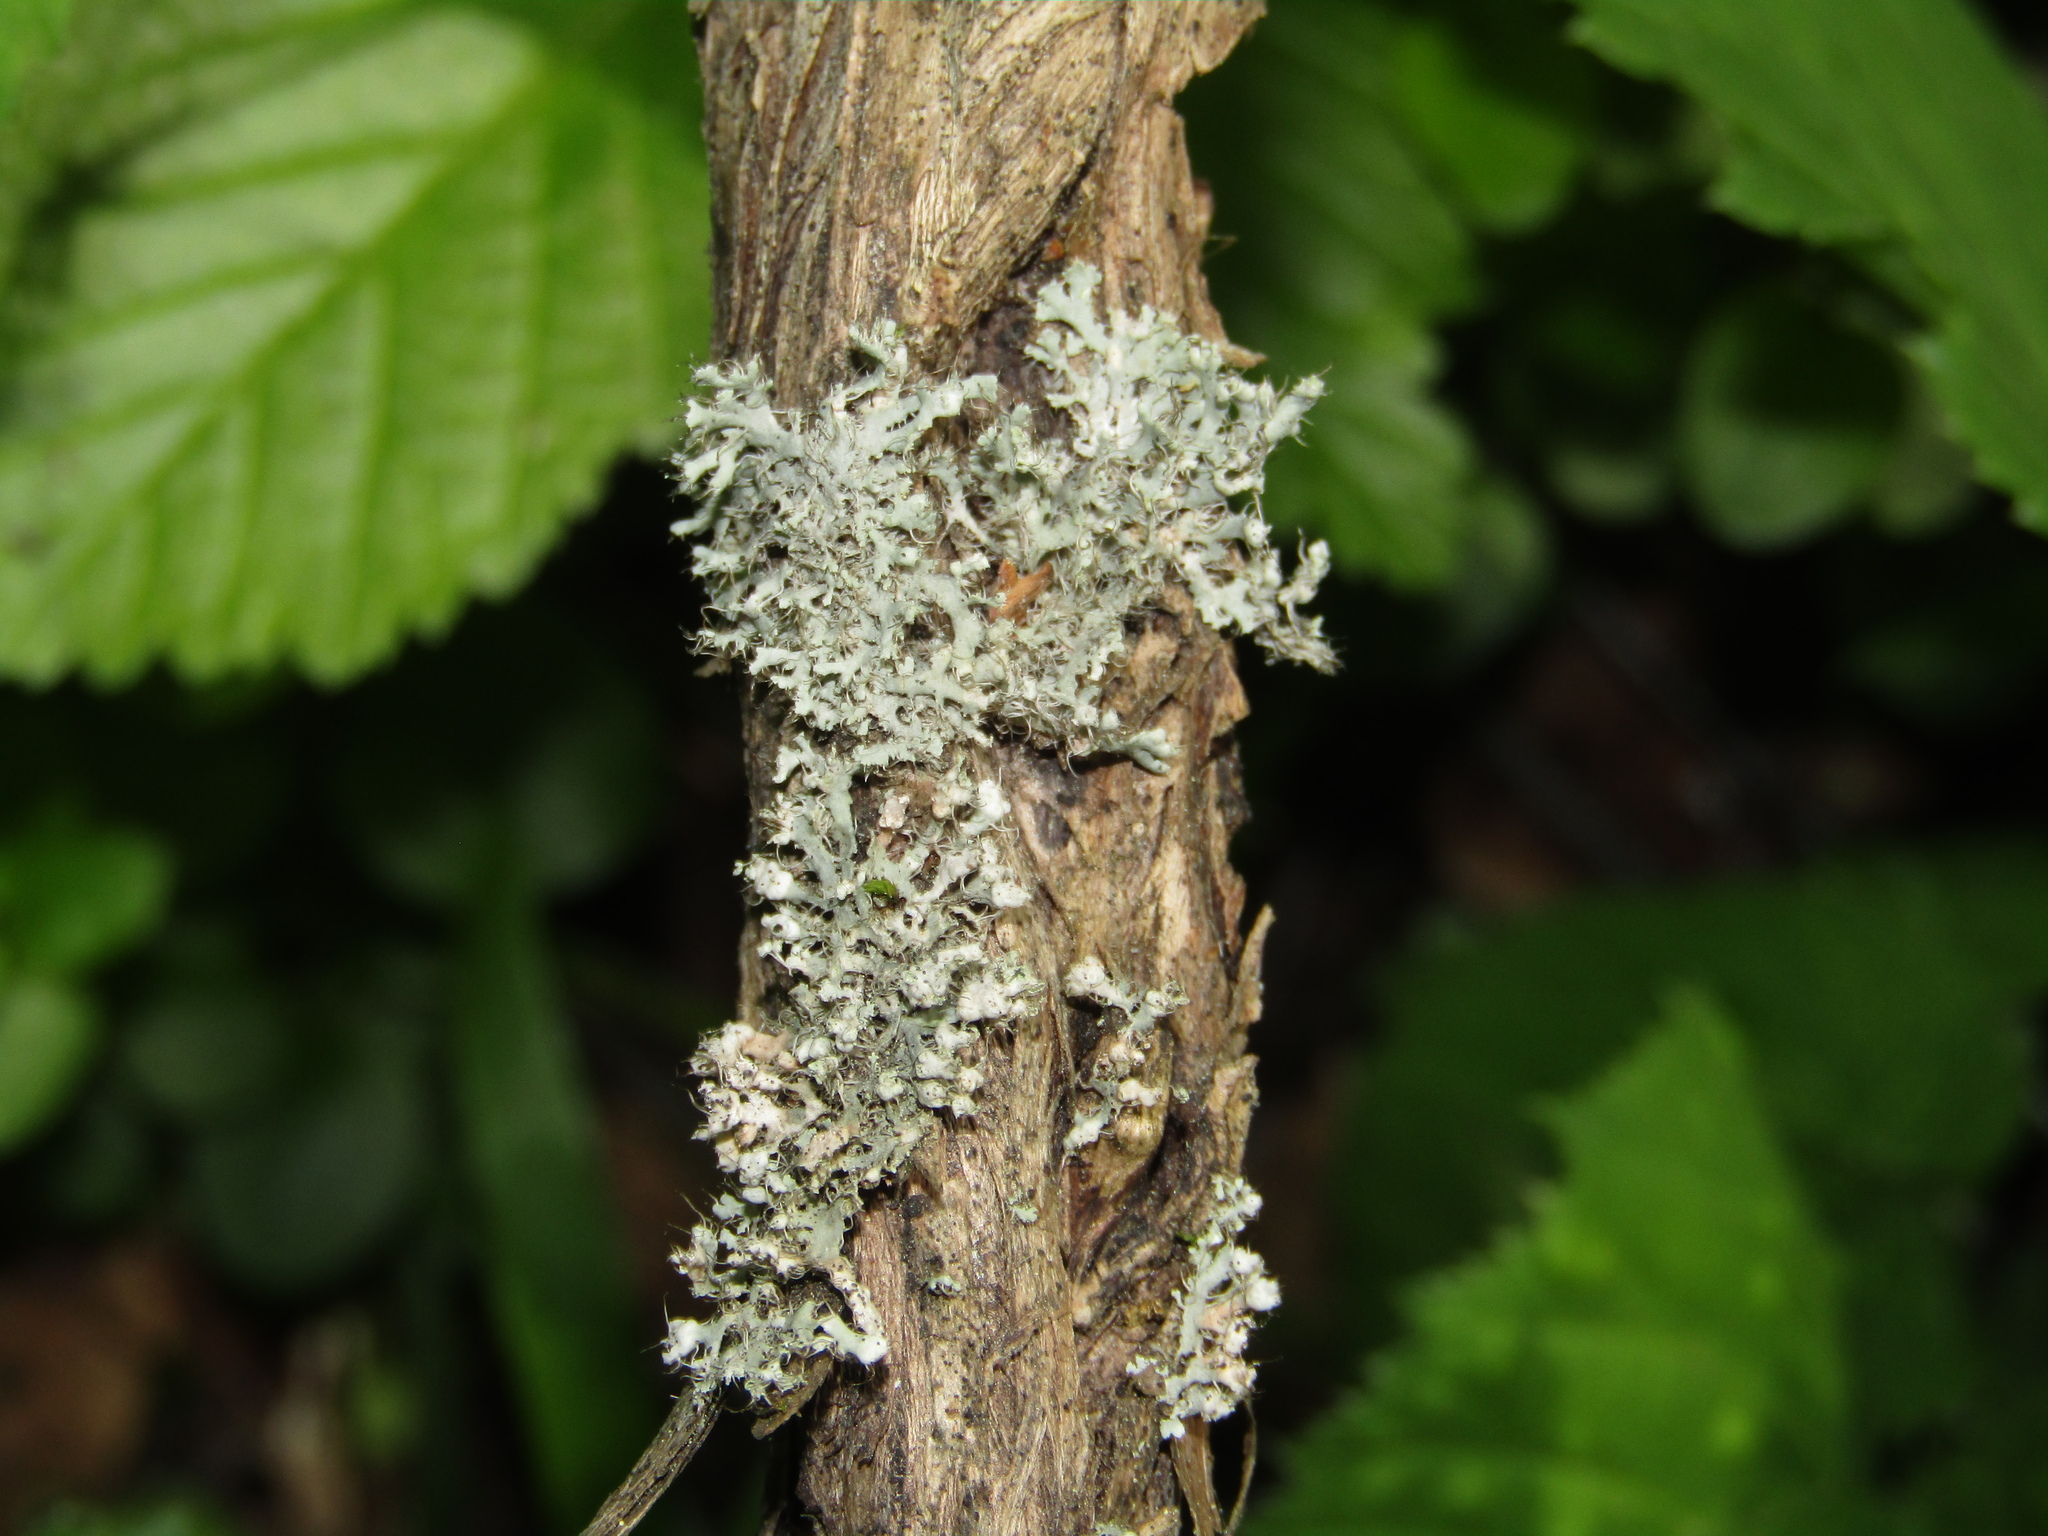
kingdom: Fungi
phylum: Ascomycota
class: Lecanoromycetes
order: Caliciales
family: Physciaceae
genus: Physcia
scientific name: Physcia adscendens
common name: Hooded rosette lichen
